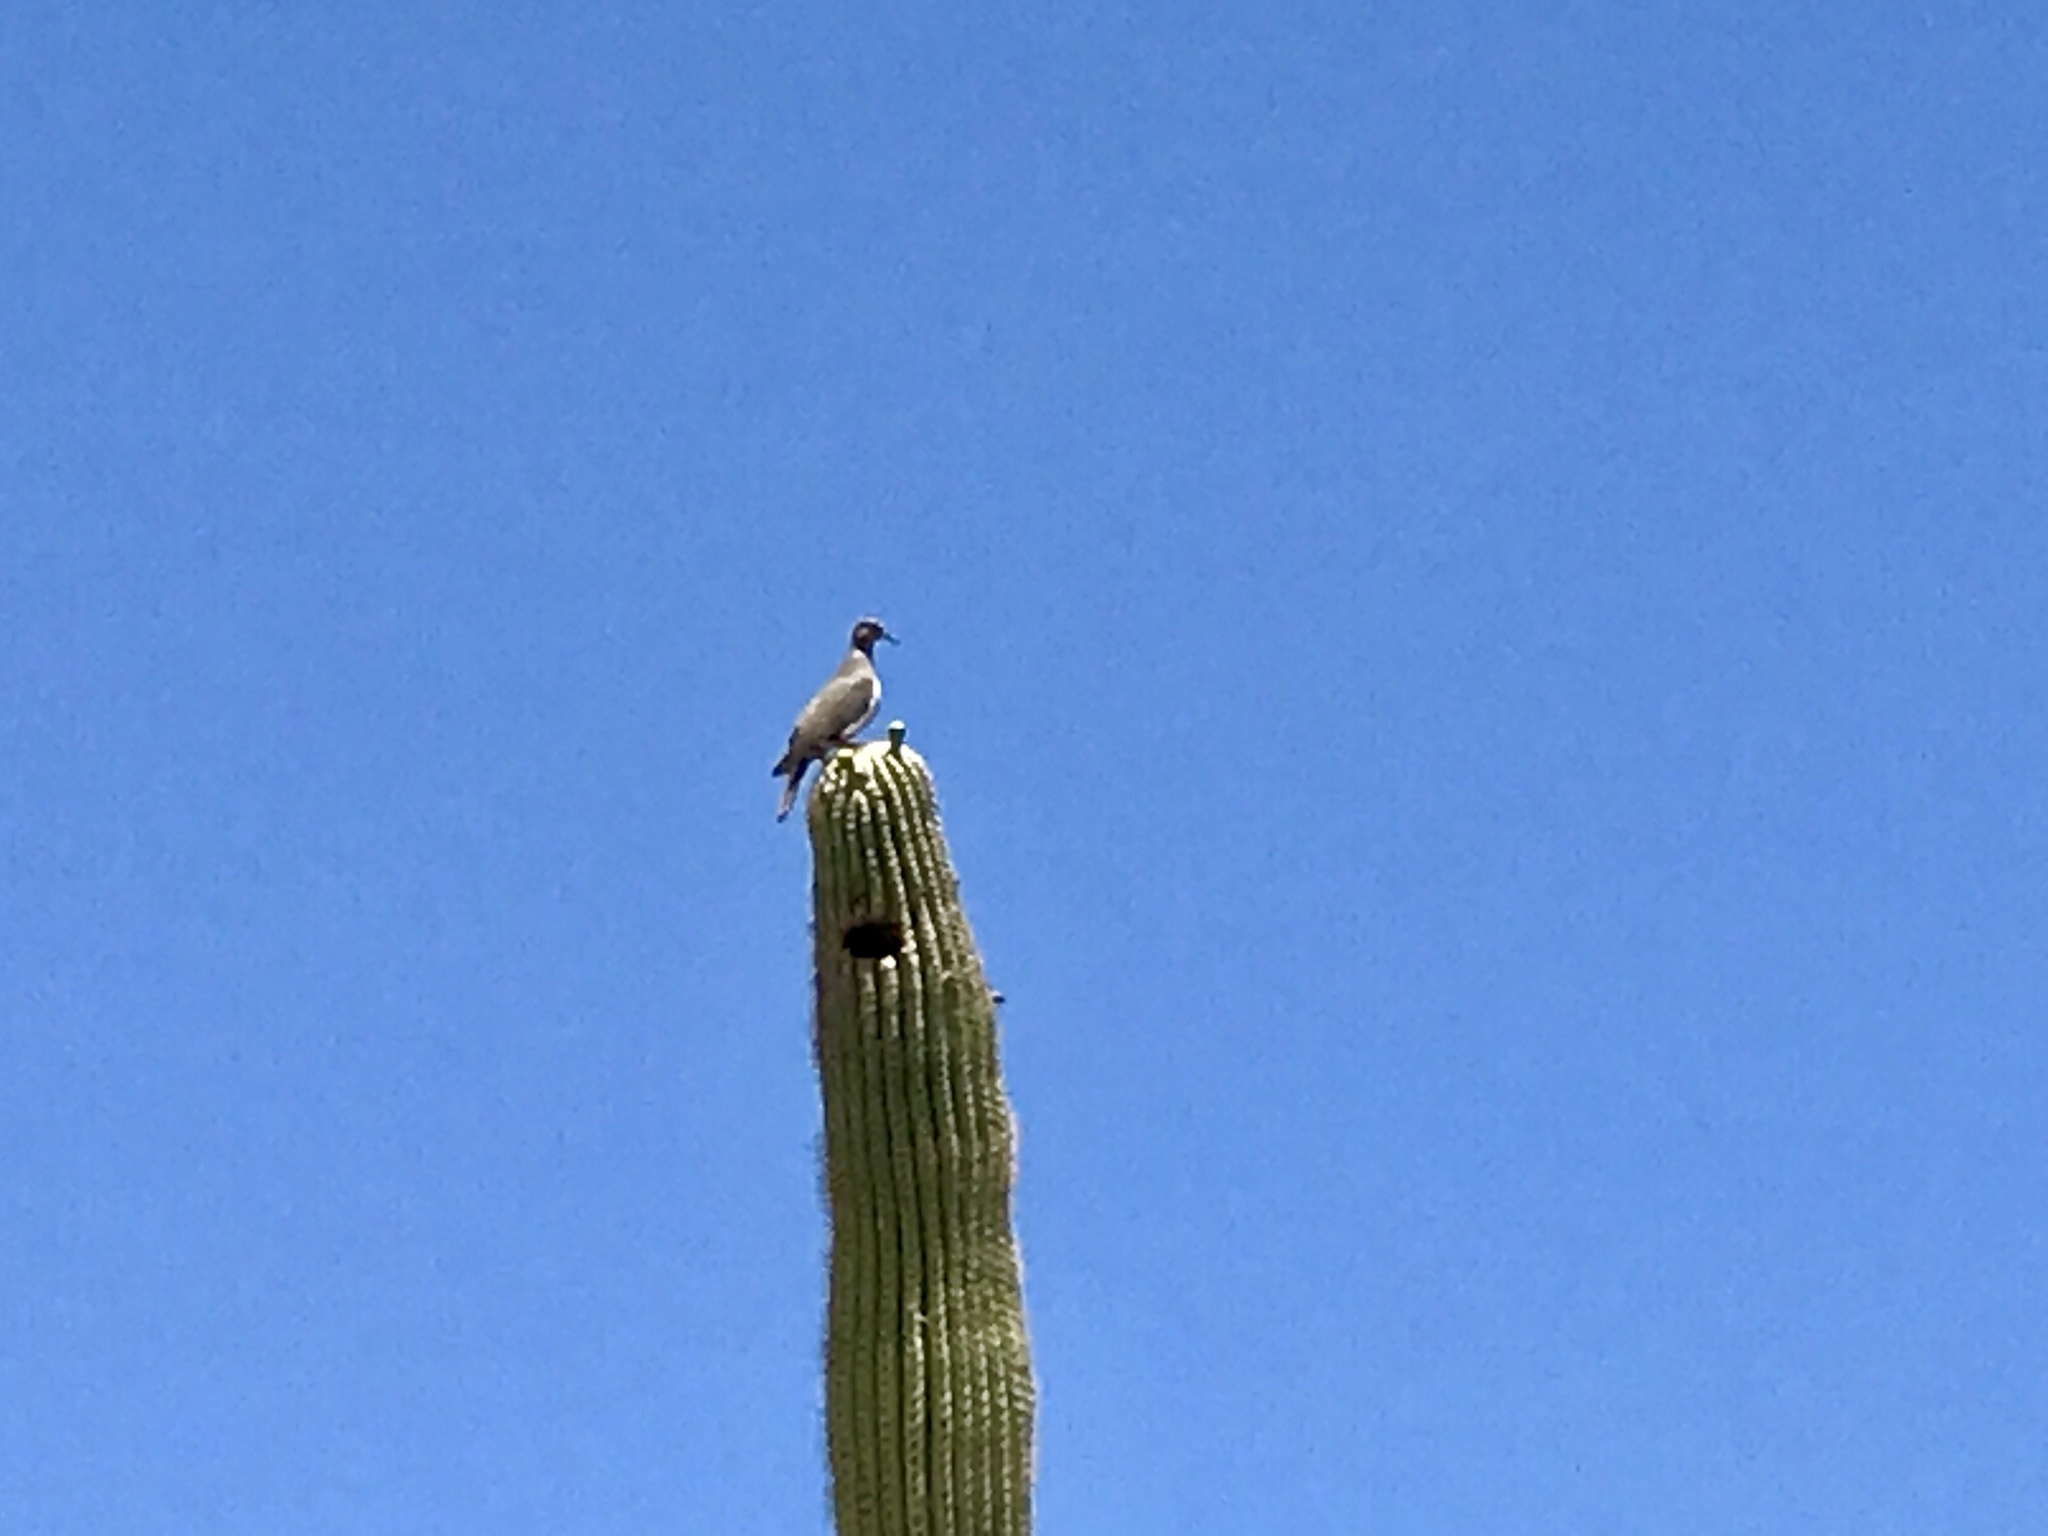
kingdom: Animalia
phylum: Chordata
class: Aves
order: Columbiformes
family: Columbidae
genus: Zenaida
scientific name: Zenaida asiatica
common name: White-winged dove
